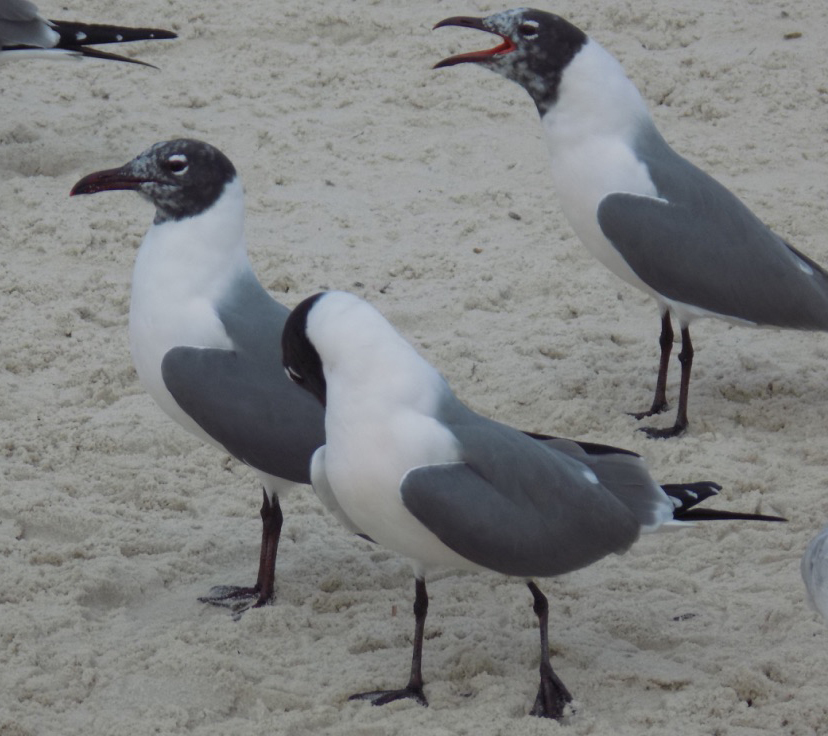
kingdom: Animalia
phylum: Chordata
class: Aves
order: Charadriiformes
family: Laridae
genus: Leucophaeus
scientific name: Leucophaeus atricilla
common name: Laughing gull
